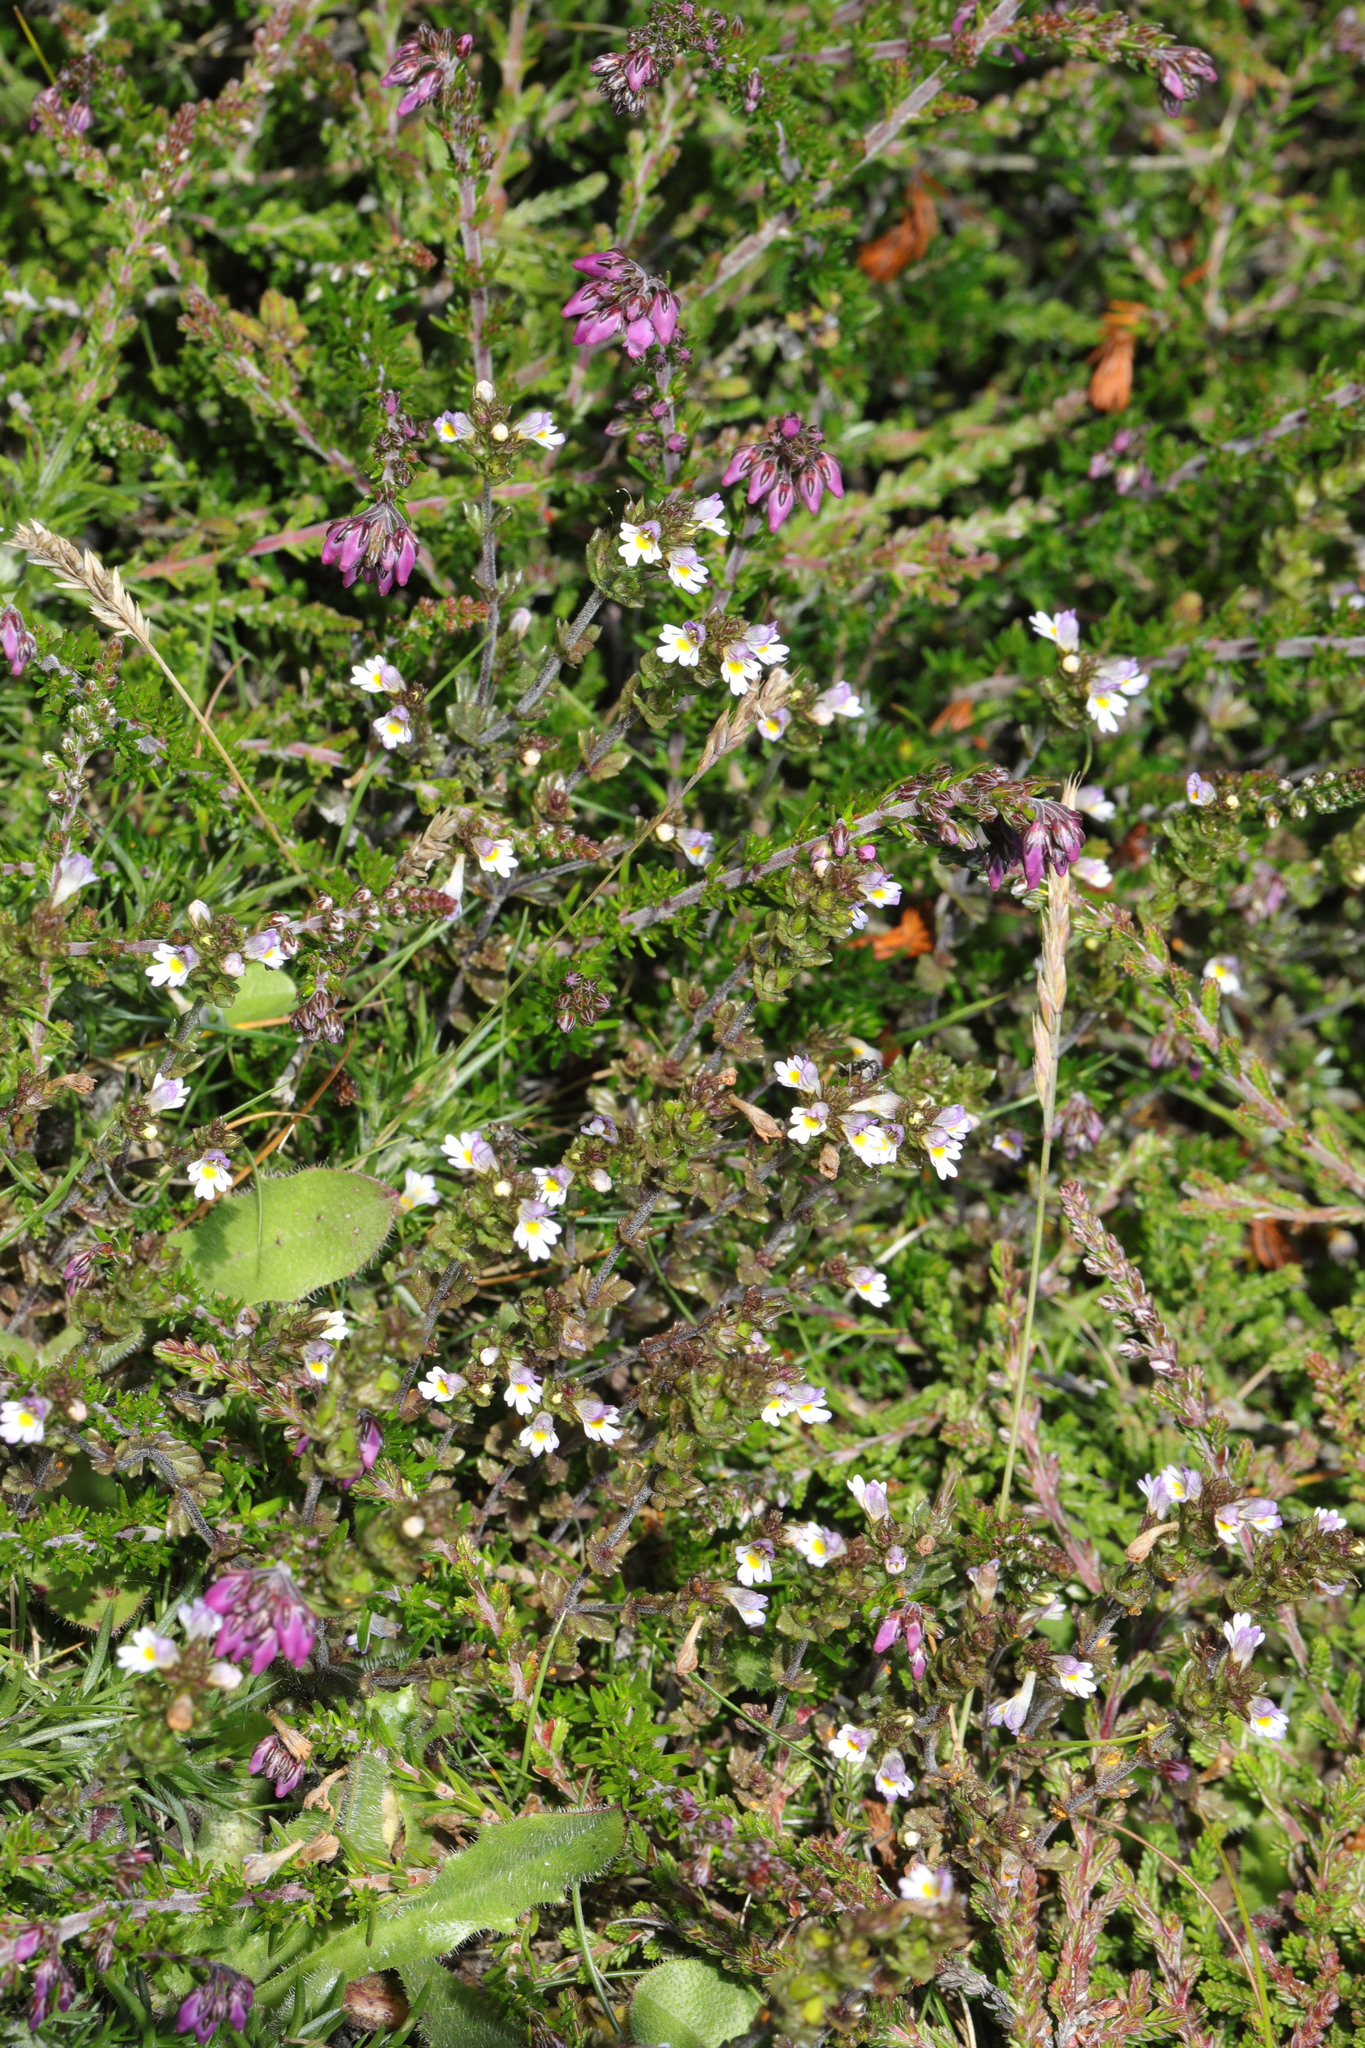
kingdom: Plantae
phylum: Tracheophyta
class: Magnoliopsida
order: Lamiales
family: Orobanchaceae
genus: Euphrasia
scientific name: Euphrasia nemorosa
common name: Common eyebright
